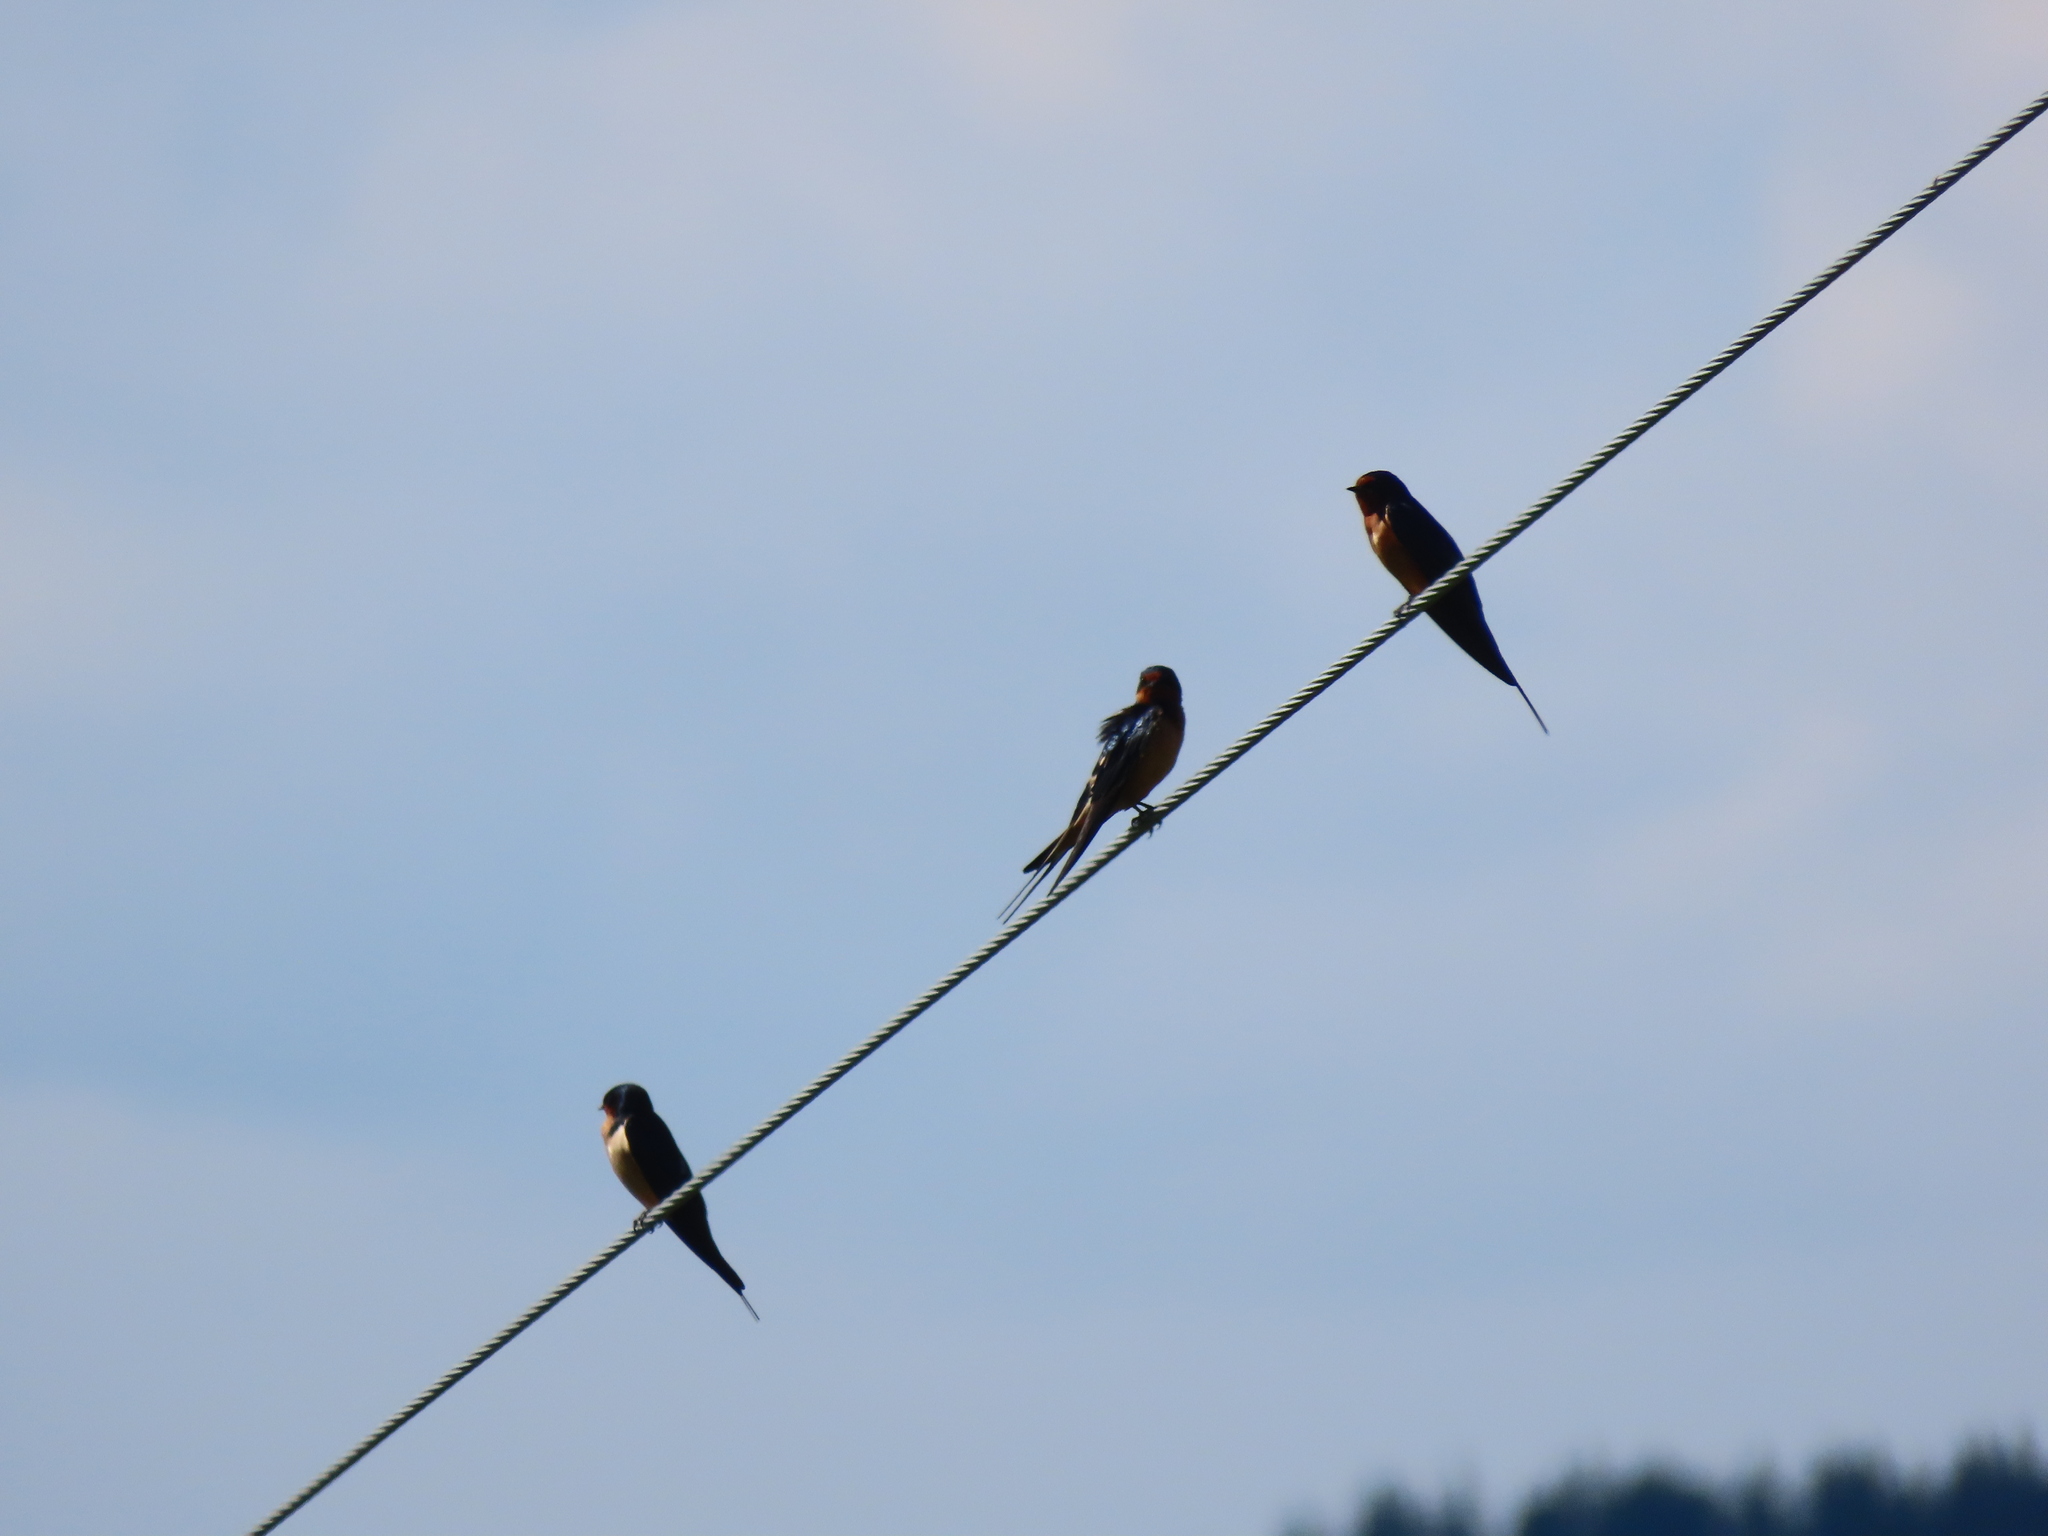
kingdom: Animalia
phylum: Chordata
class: Aves
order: Passeriformes
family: Hirundinidae
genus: Hirundo
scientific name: Hirundo rustica
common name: Barn swallow
